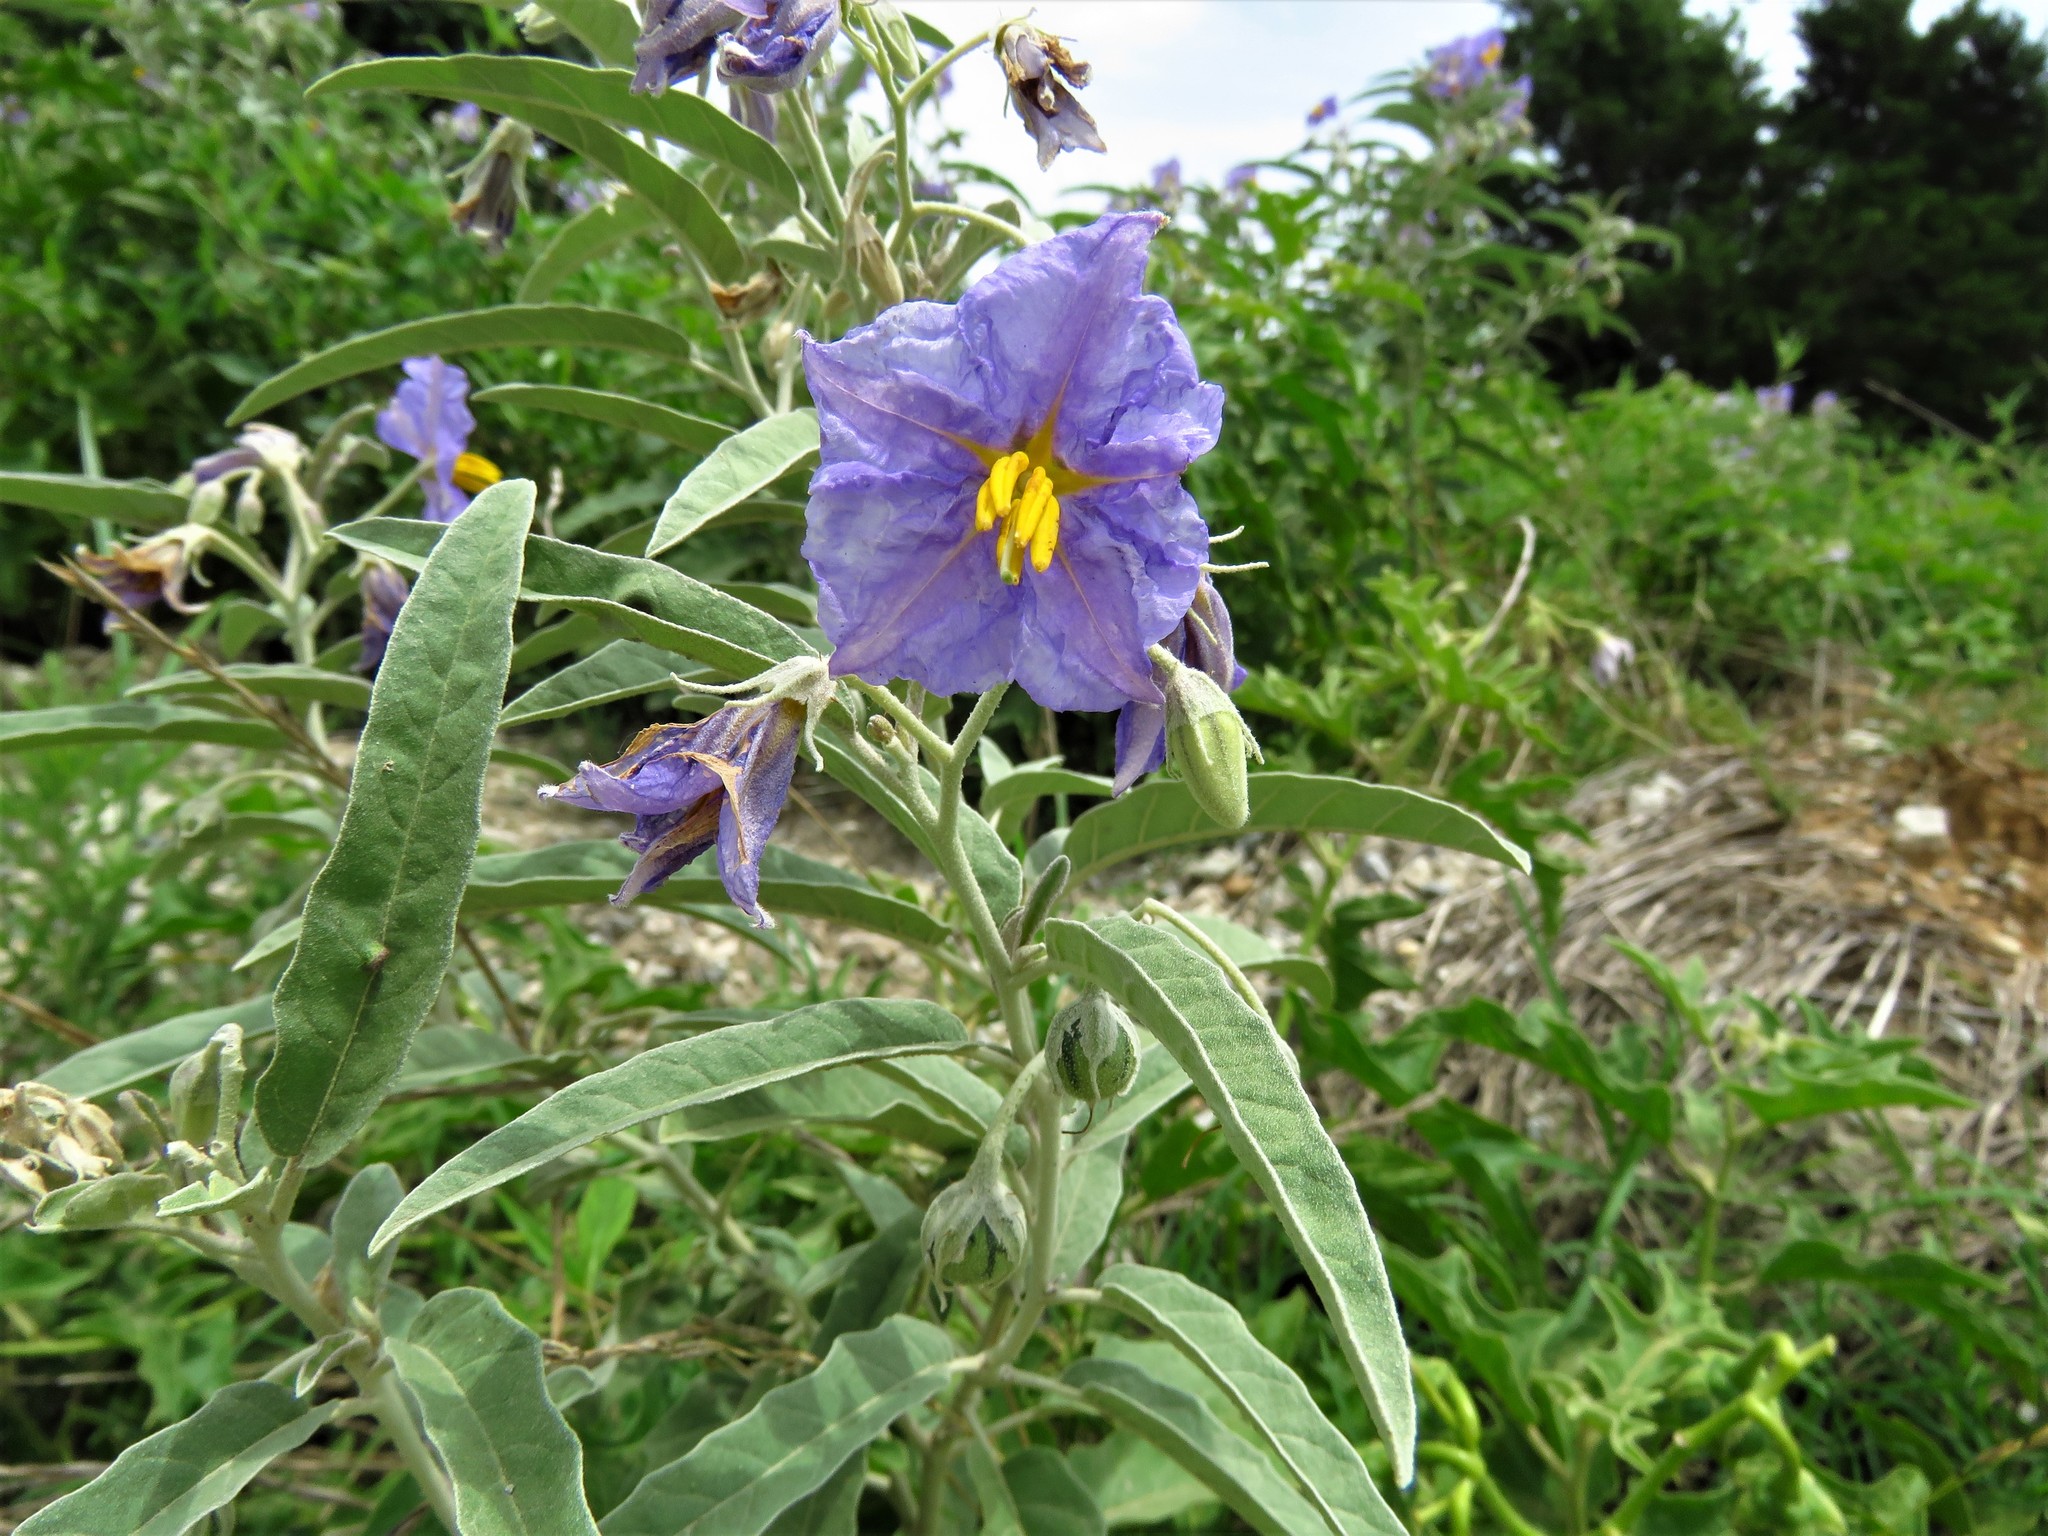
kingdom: Plantae
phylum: Tracheophyta
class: Magnoliopsida
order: Solanales
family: Solanaceae
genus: Solanum
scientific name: Solanum elaeagnifolium
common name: Silverleaf nightshade
